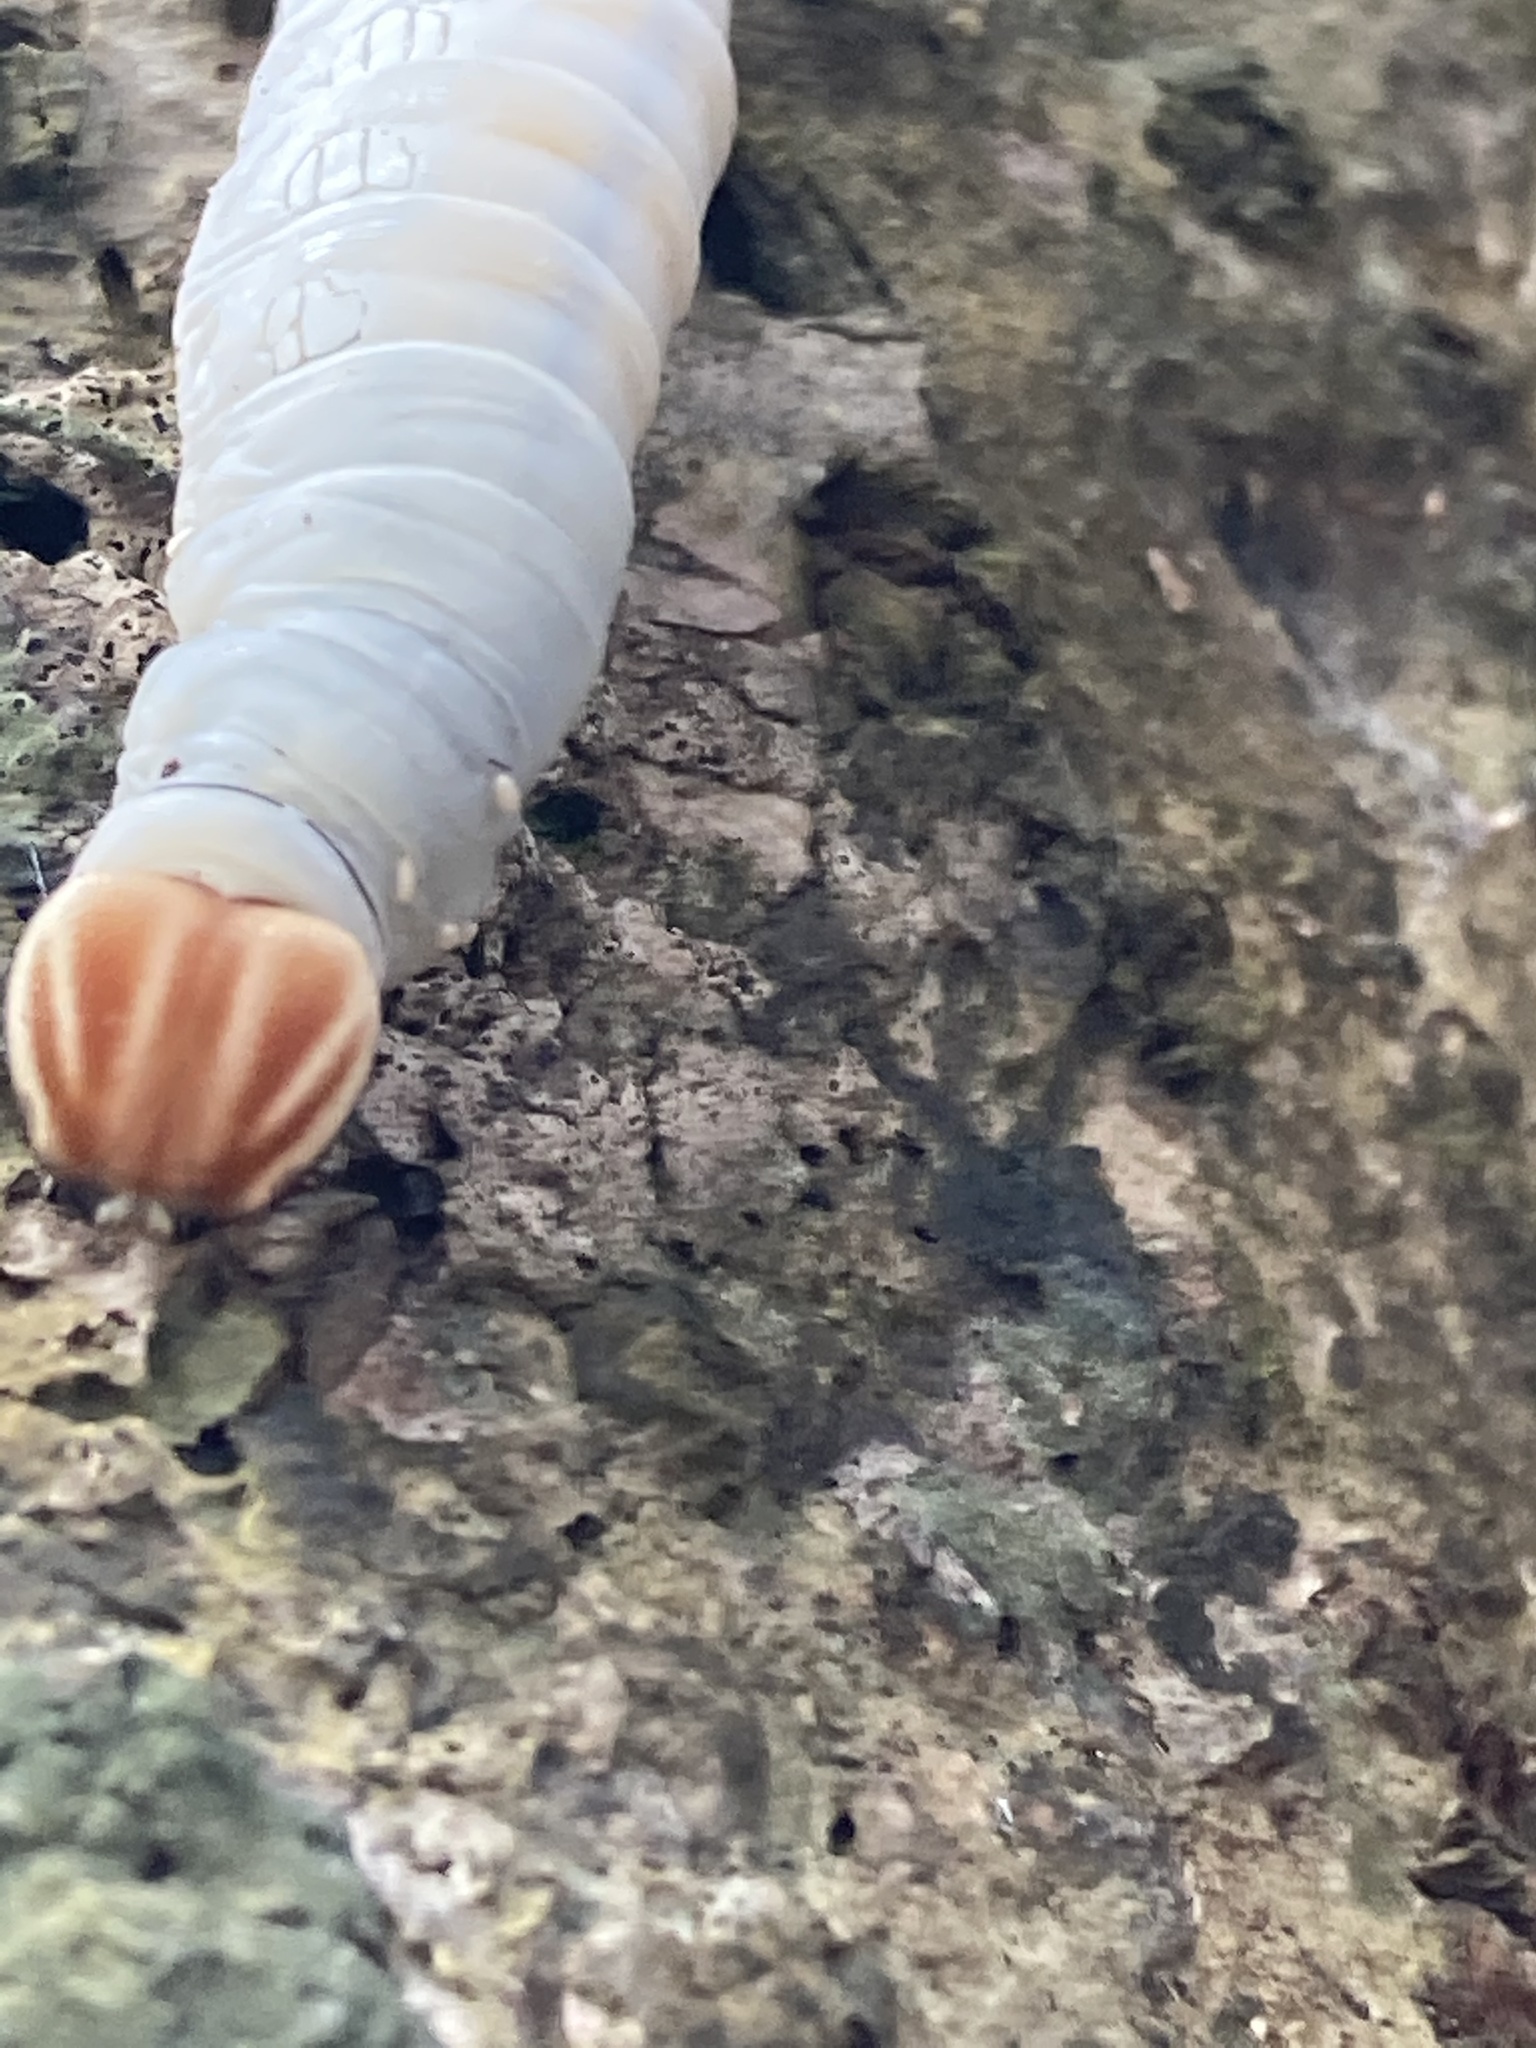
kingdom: Animalia
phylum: Arthropoda
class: Insecta
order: Lepidoptera
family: Hesperiidae
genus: Bungalotis
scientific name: Bungalotis midas
